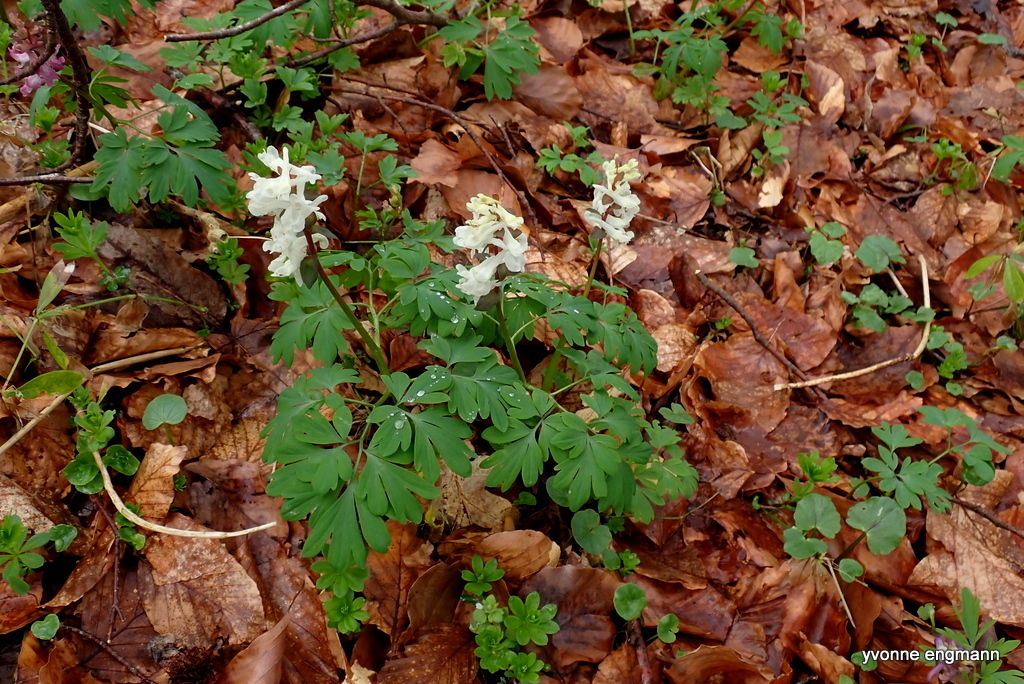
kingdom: Plantae
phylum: Tracheophyta
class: Magnoliopsida
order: Ranunculales
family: Papaveraceae
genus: Corydalis
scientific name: Corydalis cava
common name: Hollowroot
